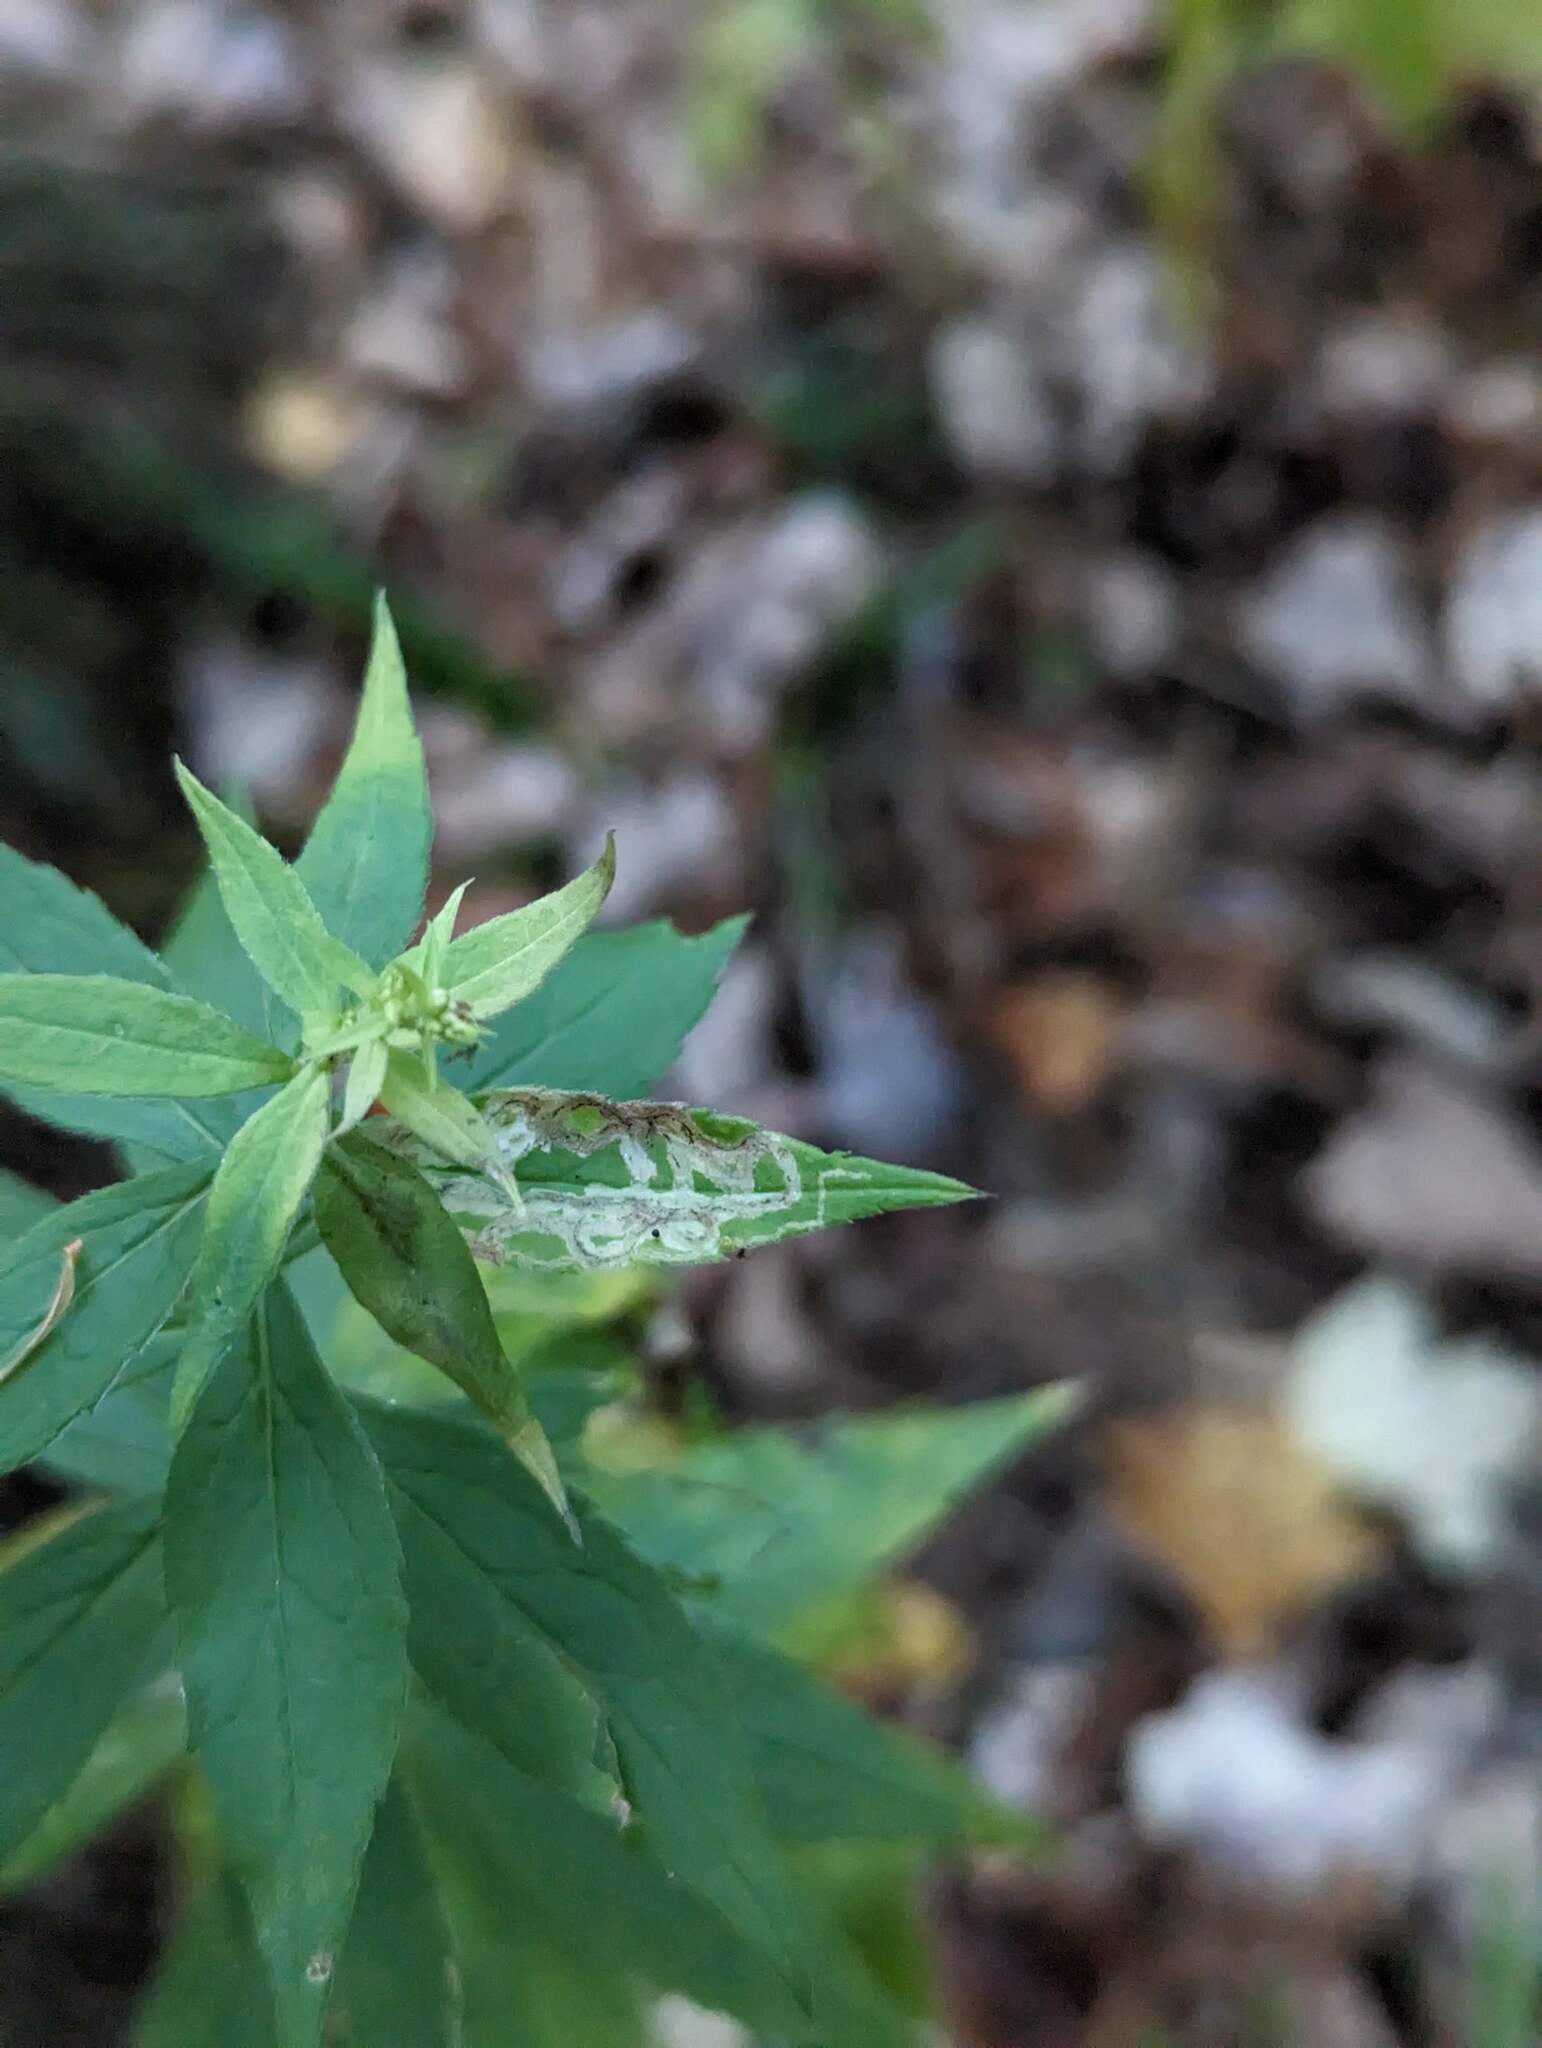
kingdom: Animalia
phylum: Arthropoda
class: Insecta
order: Diptera
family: Agromyzidae
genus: Liriomyza
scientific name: Liriomyza eupatorii
